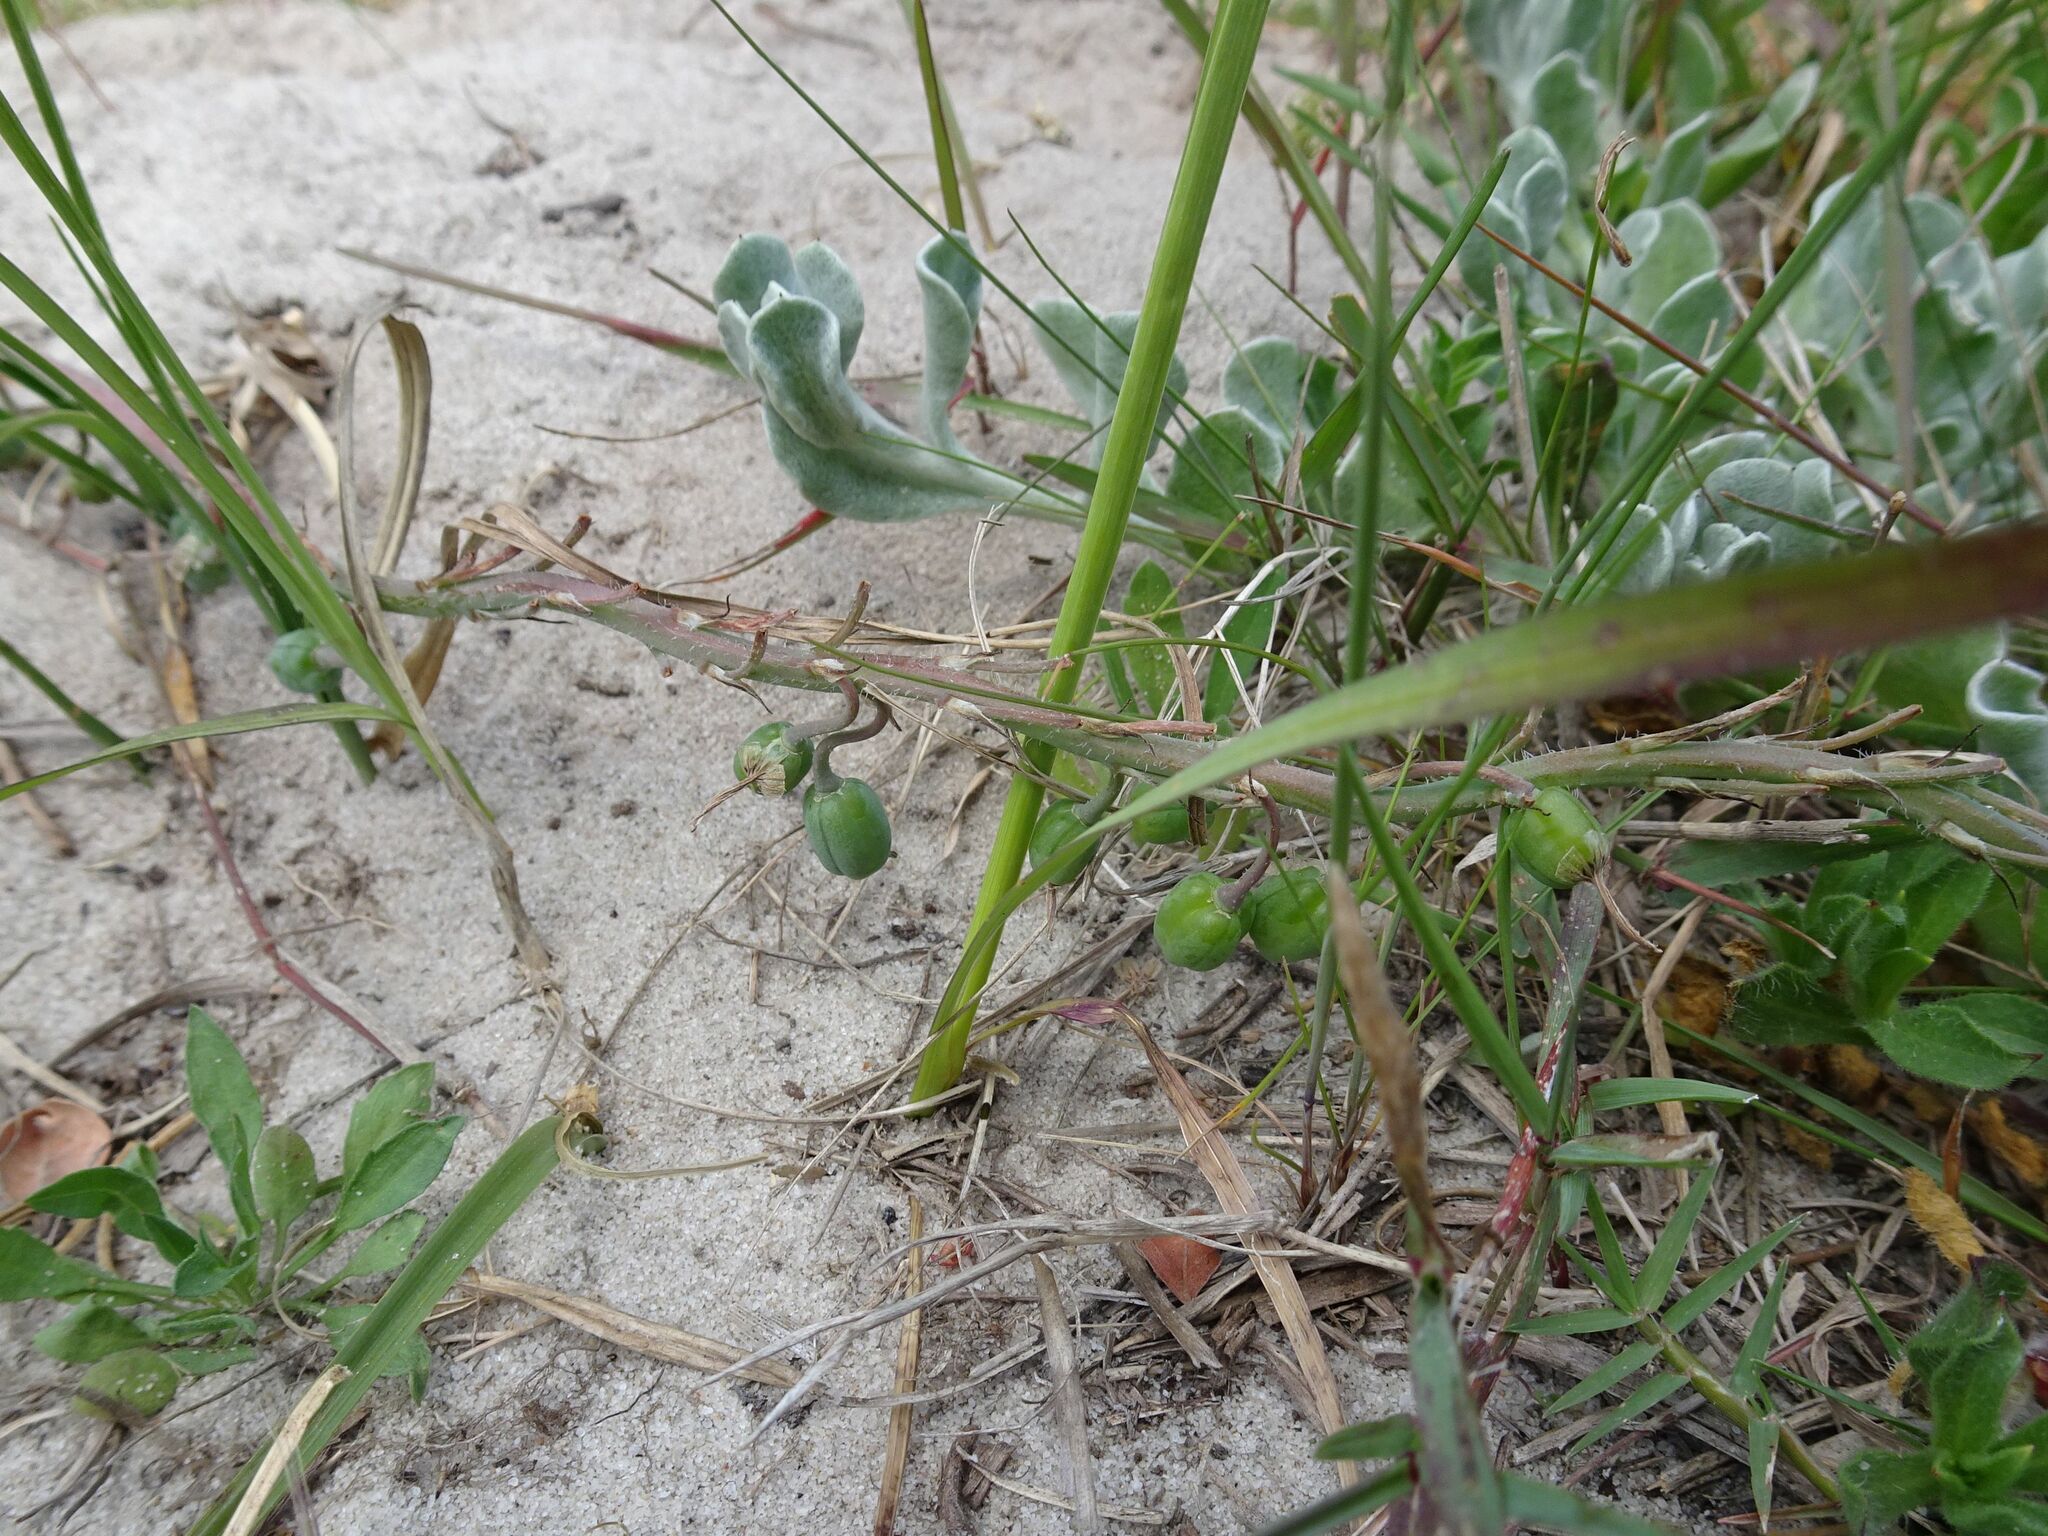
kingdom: Plantae
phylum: Tracheophyta
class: Liliopsida
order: Asparagales
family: Iridaceae
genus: Ixia
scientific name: Ixia orientalis
